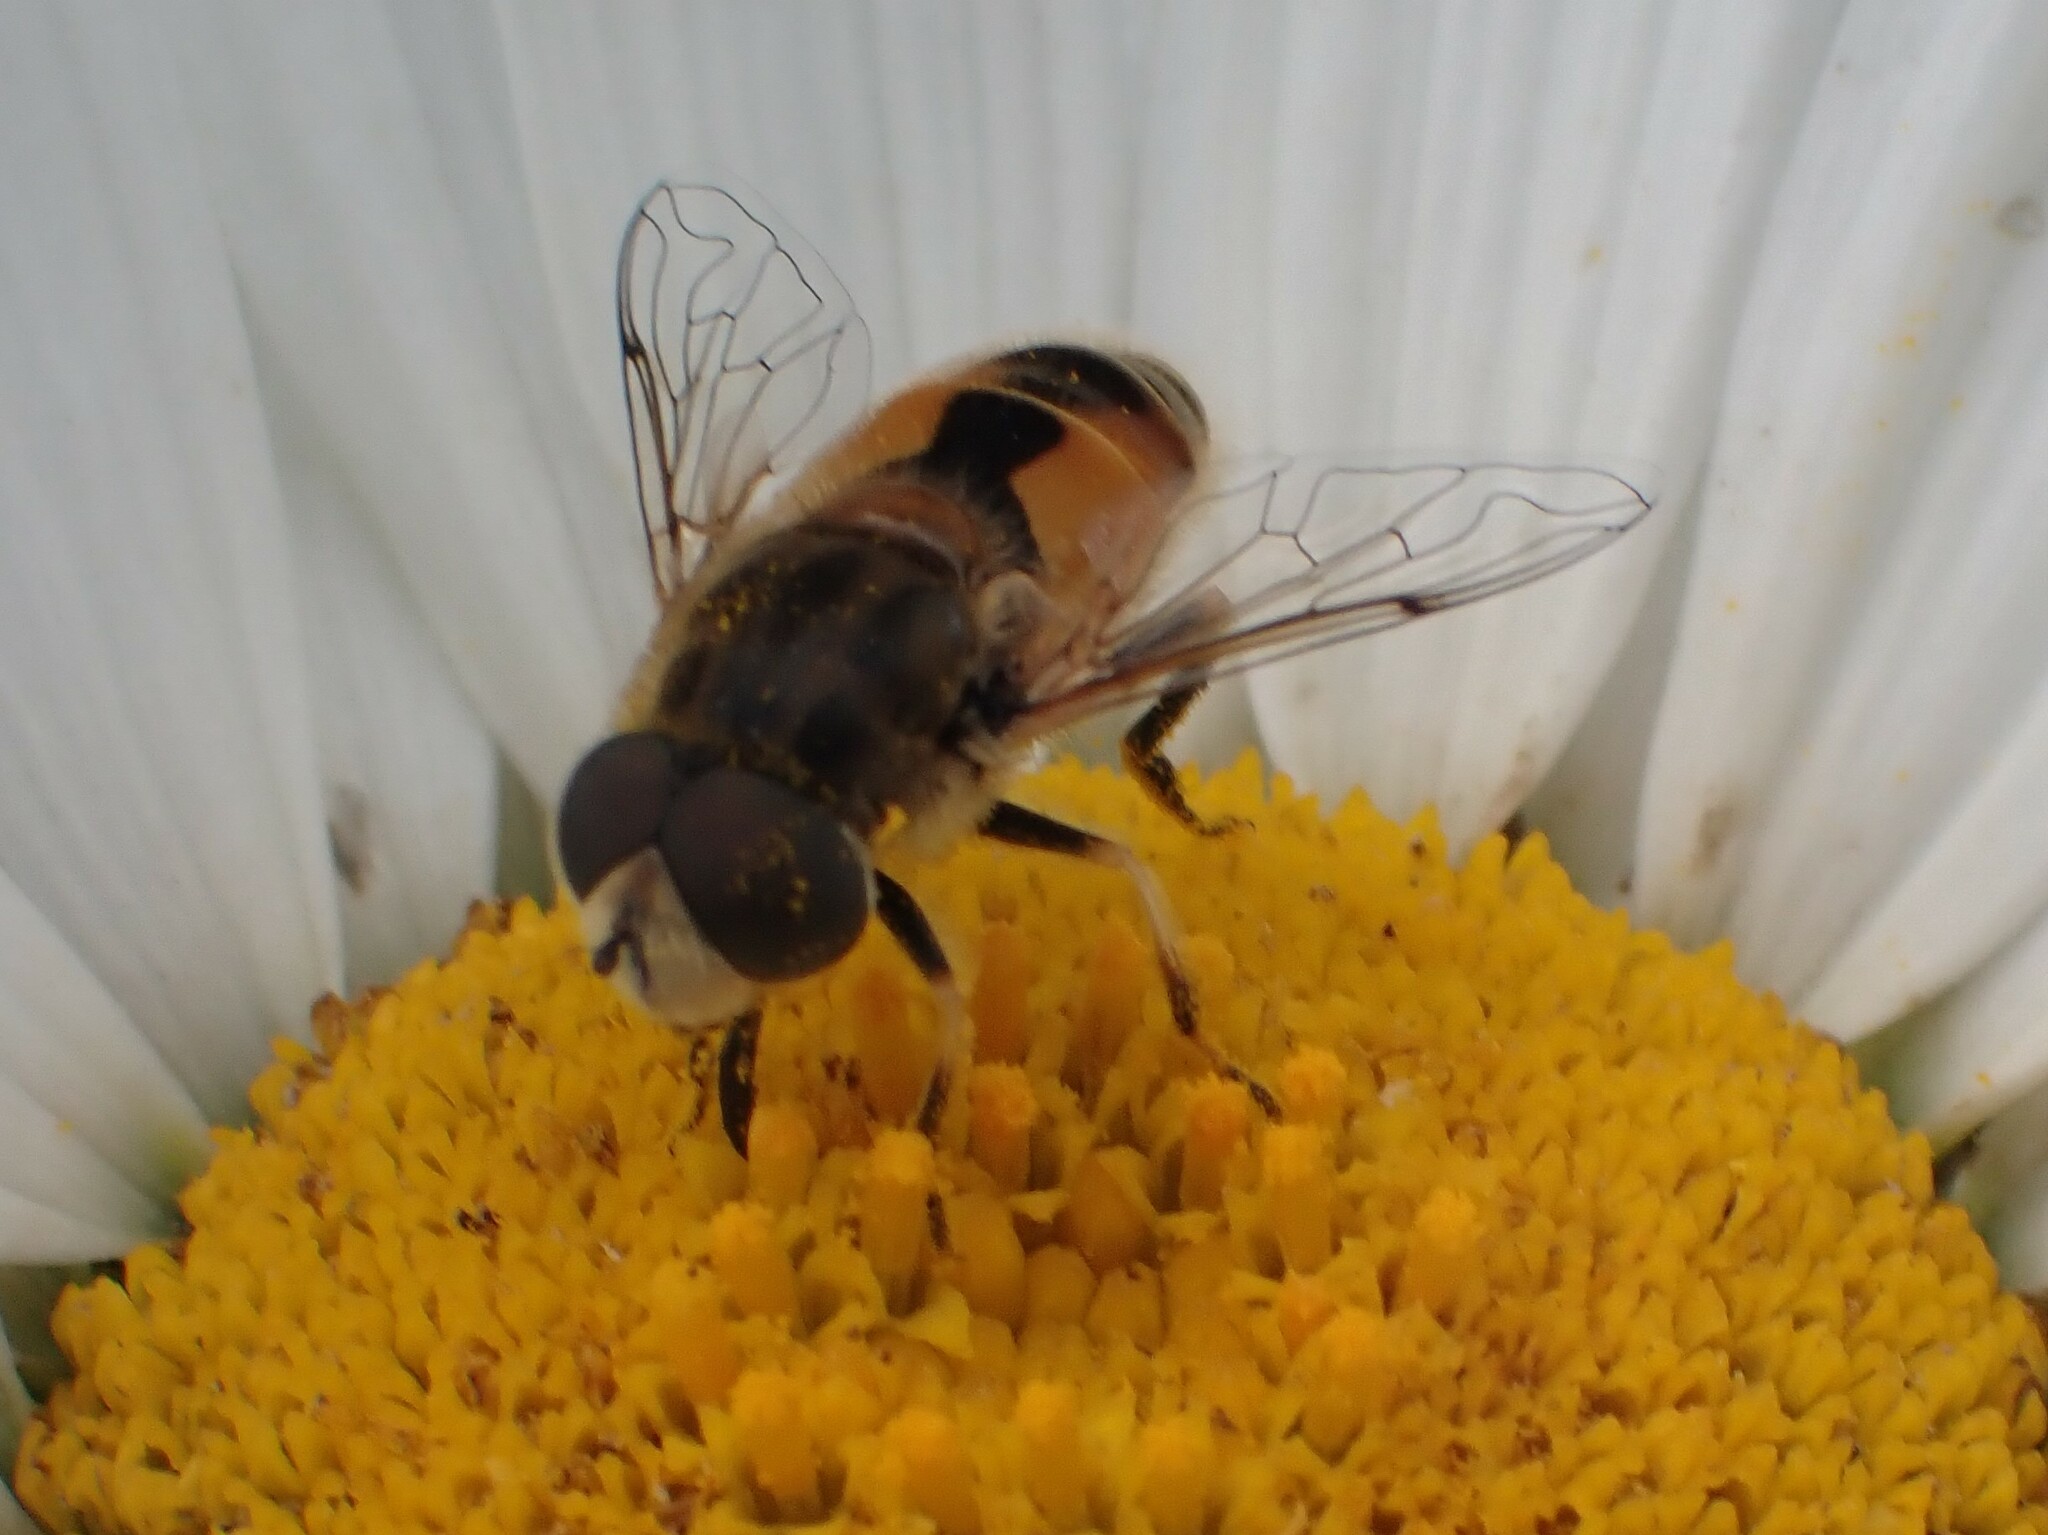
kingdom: Animalia
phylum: Arthropoda
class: Insecta
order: Diptera
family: Syrphidae
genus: Eristalis
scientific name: Eristalis arbustorum
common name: Hover fly
